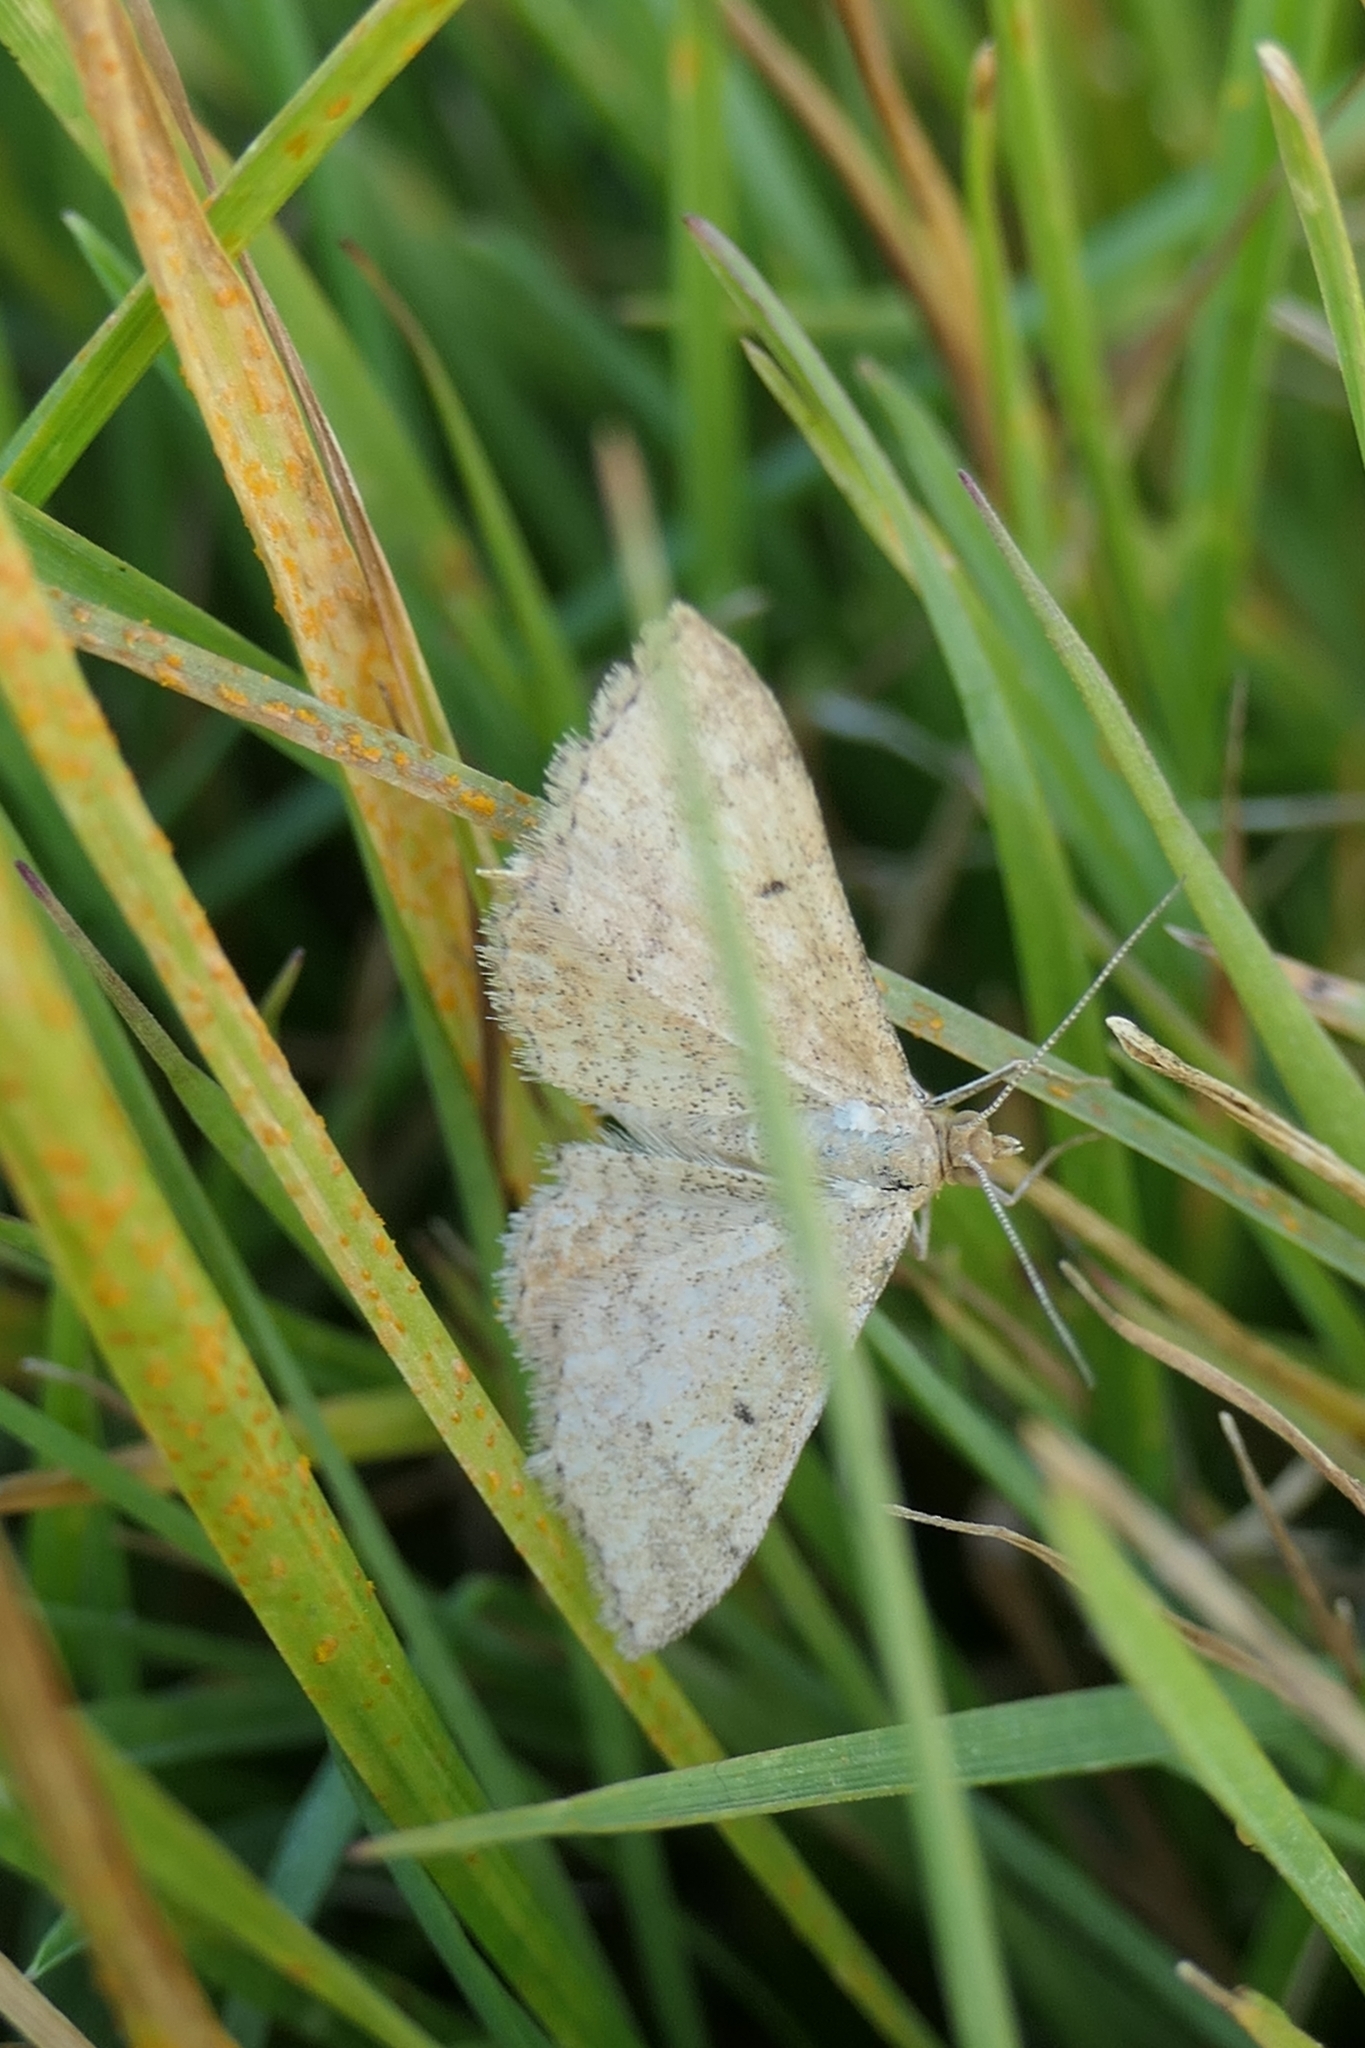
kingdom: Animalia
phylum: Arthropoda
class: Insecta
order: Lepidoptera
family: Geometridae
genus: Scopula
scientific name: Scopula rubraria
